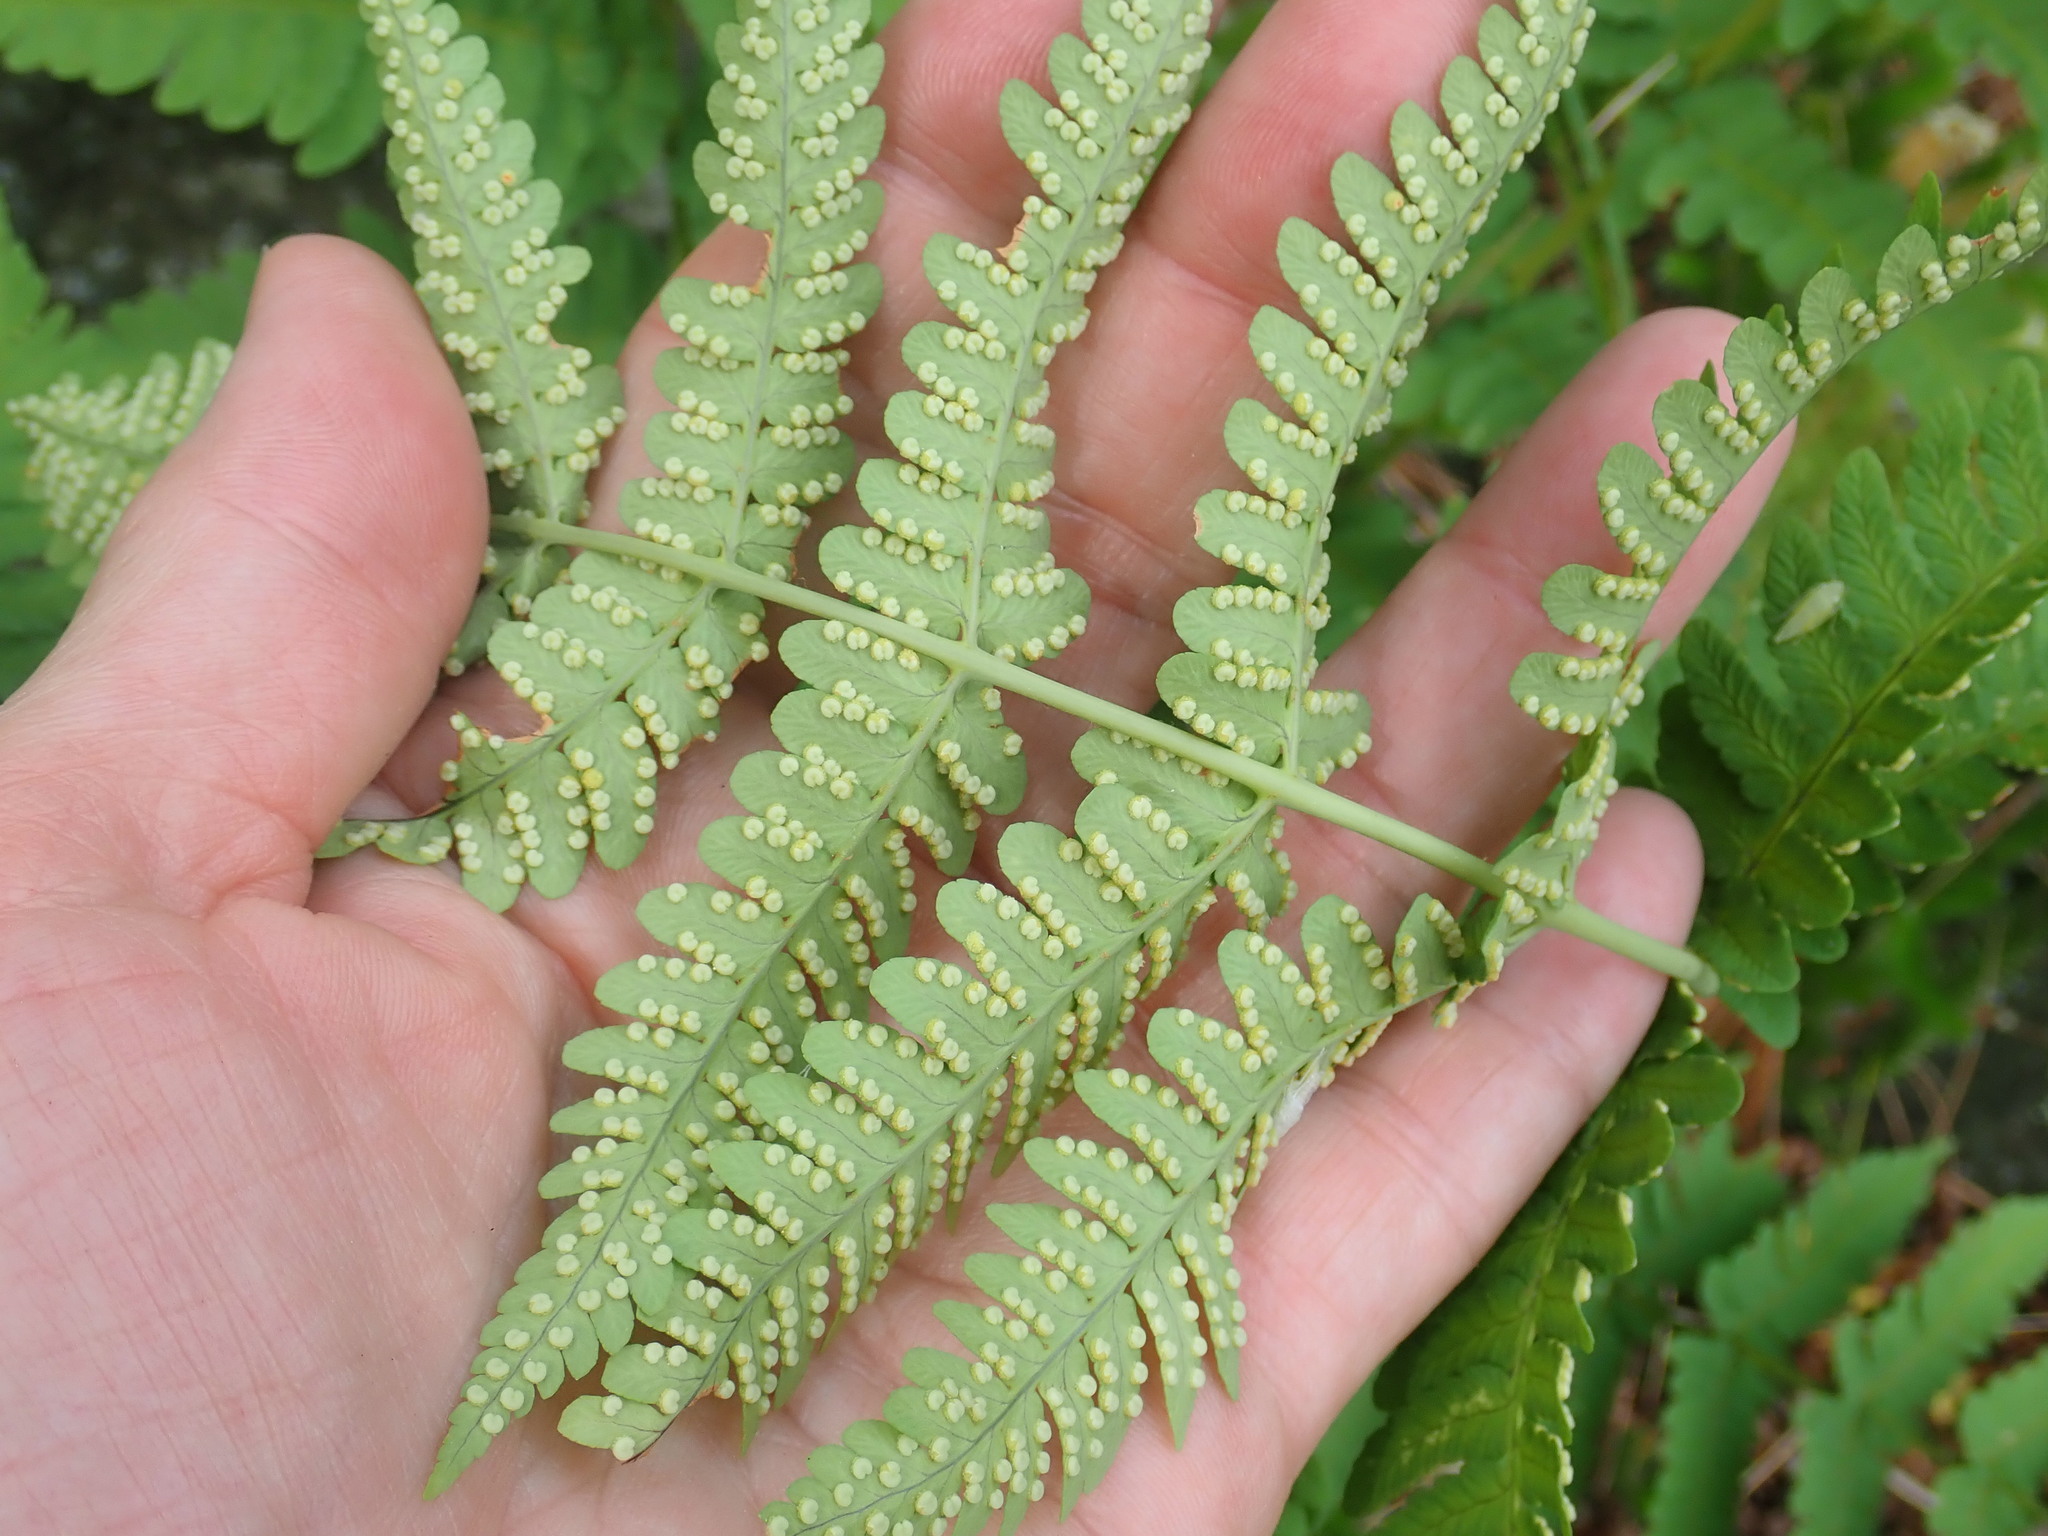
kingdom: Plantae
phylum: Tracheophyta
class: Polypodiopsida
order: Polypodiales
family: Dryopteridaceae
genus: Dryopteris
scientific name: Dryopteris marginalis
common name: Marginal wood fern
